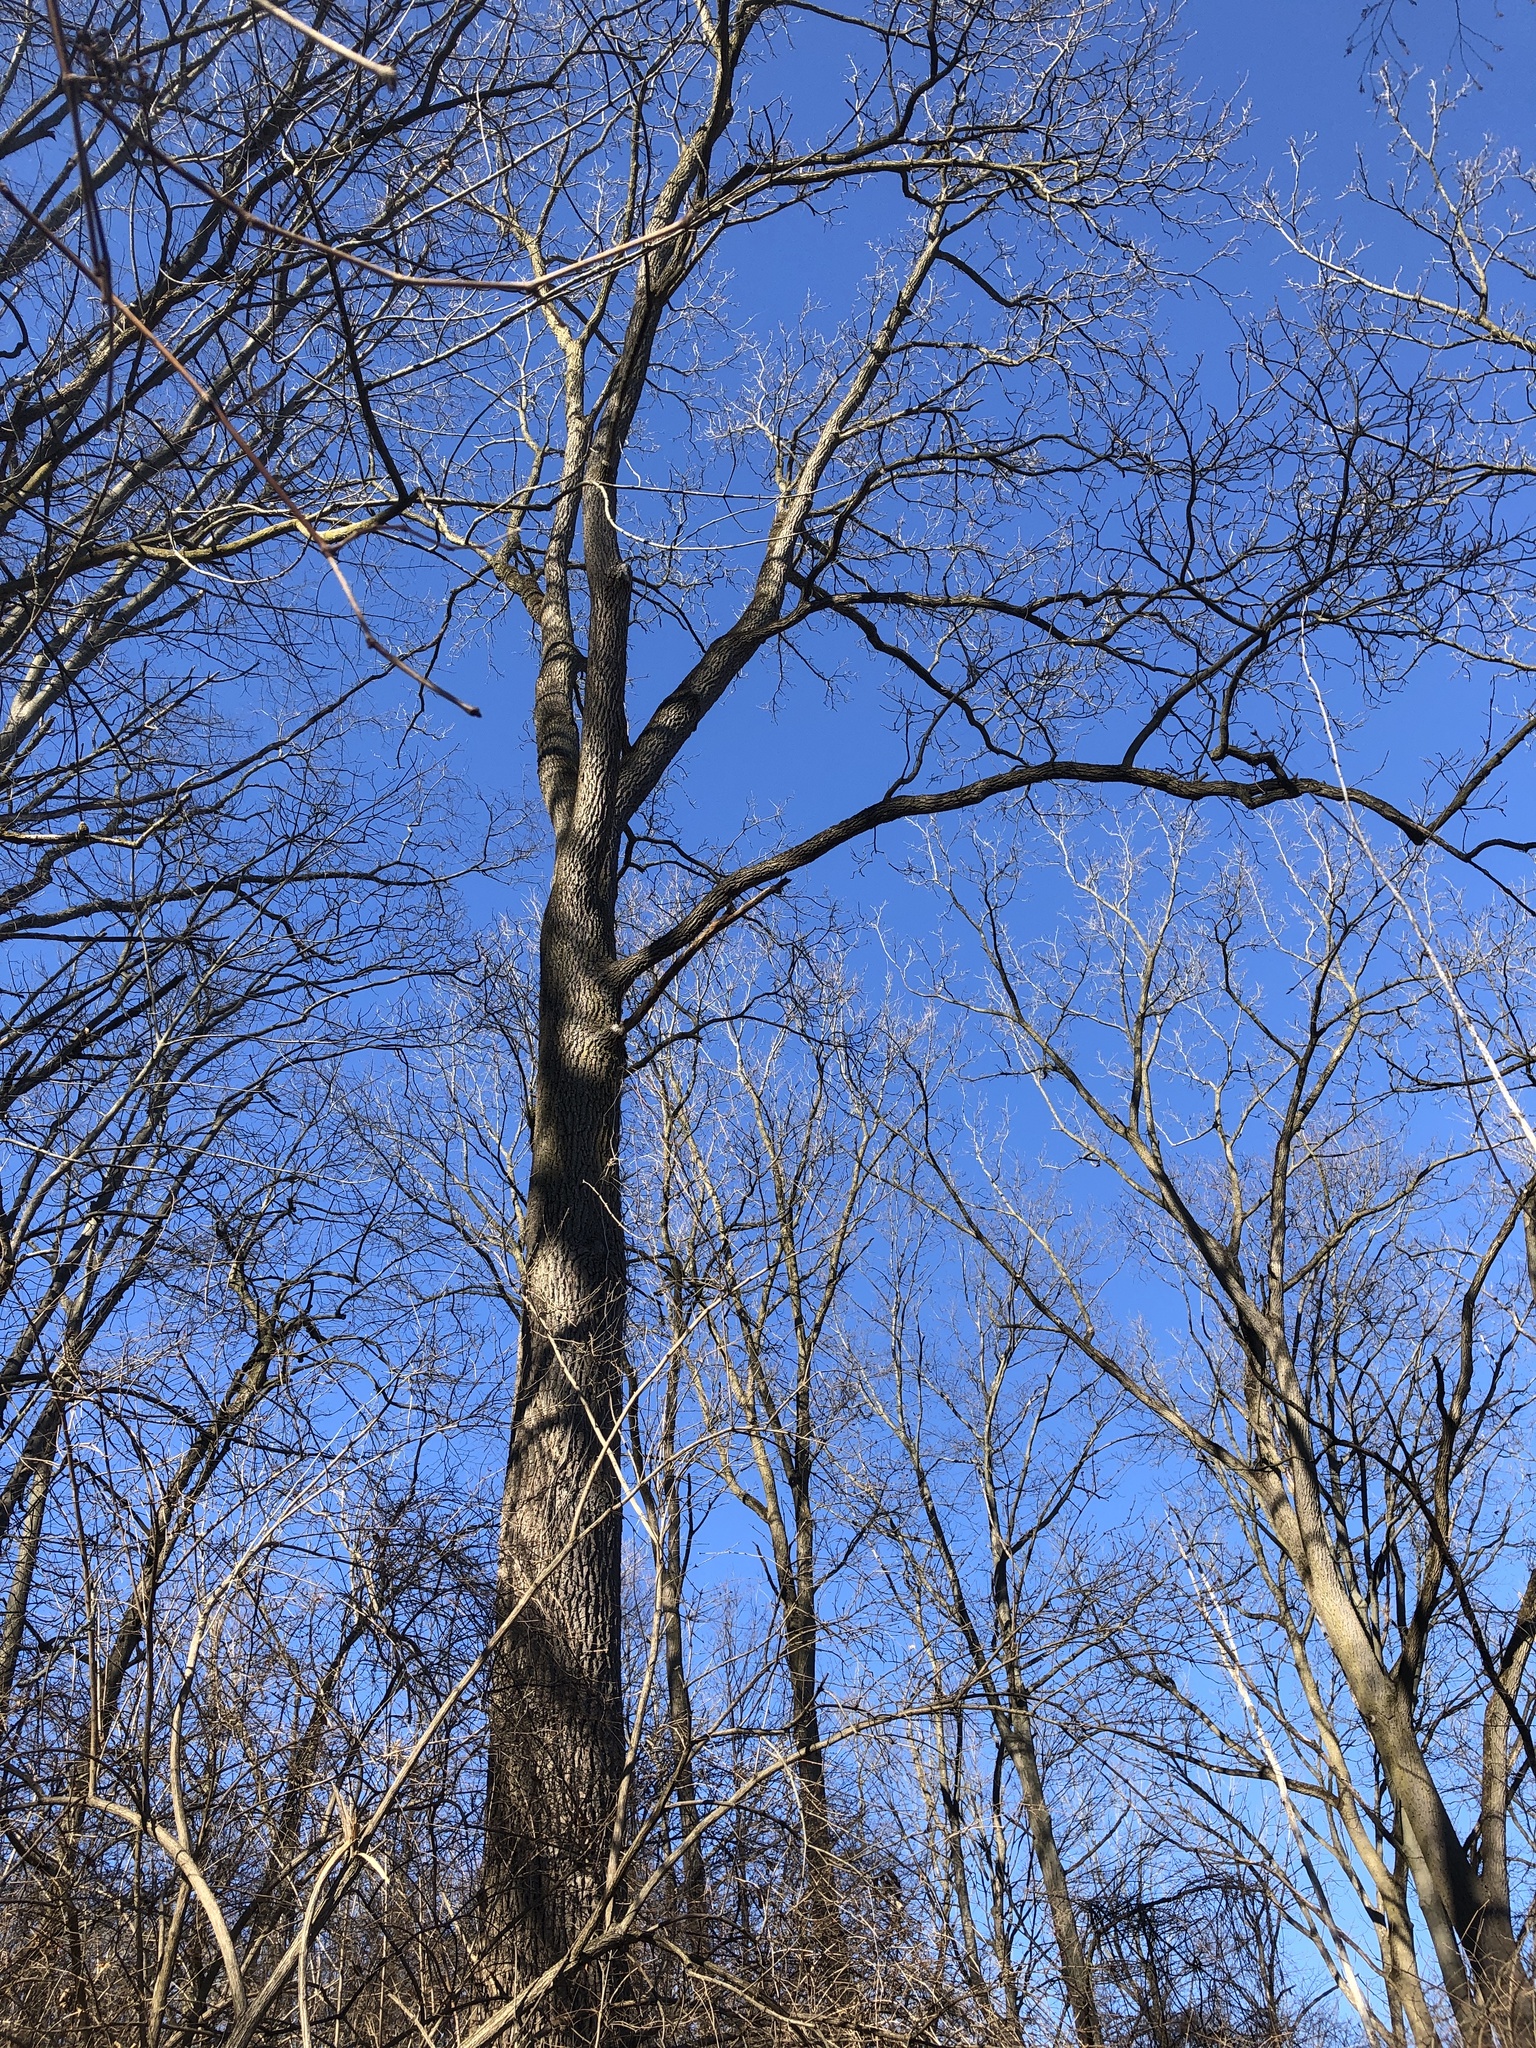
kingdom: Plantae
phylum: Tracheophyta
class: Magnoliopsida
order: Fagales
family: Juglandaceae
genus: Juglans
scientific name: Juglans nigra
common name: Black walnut
